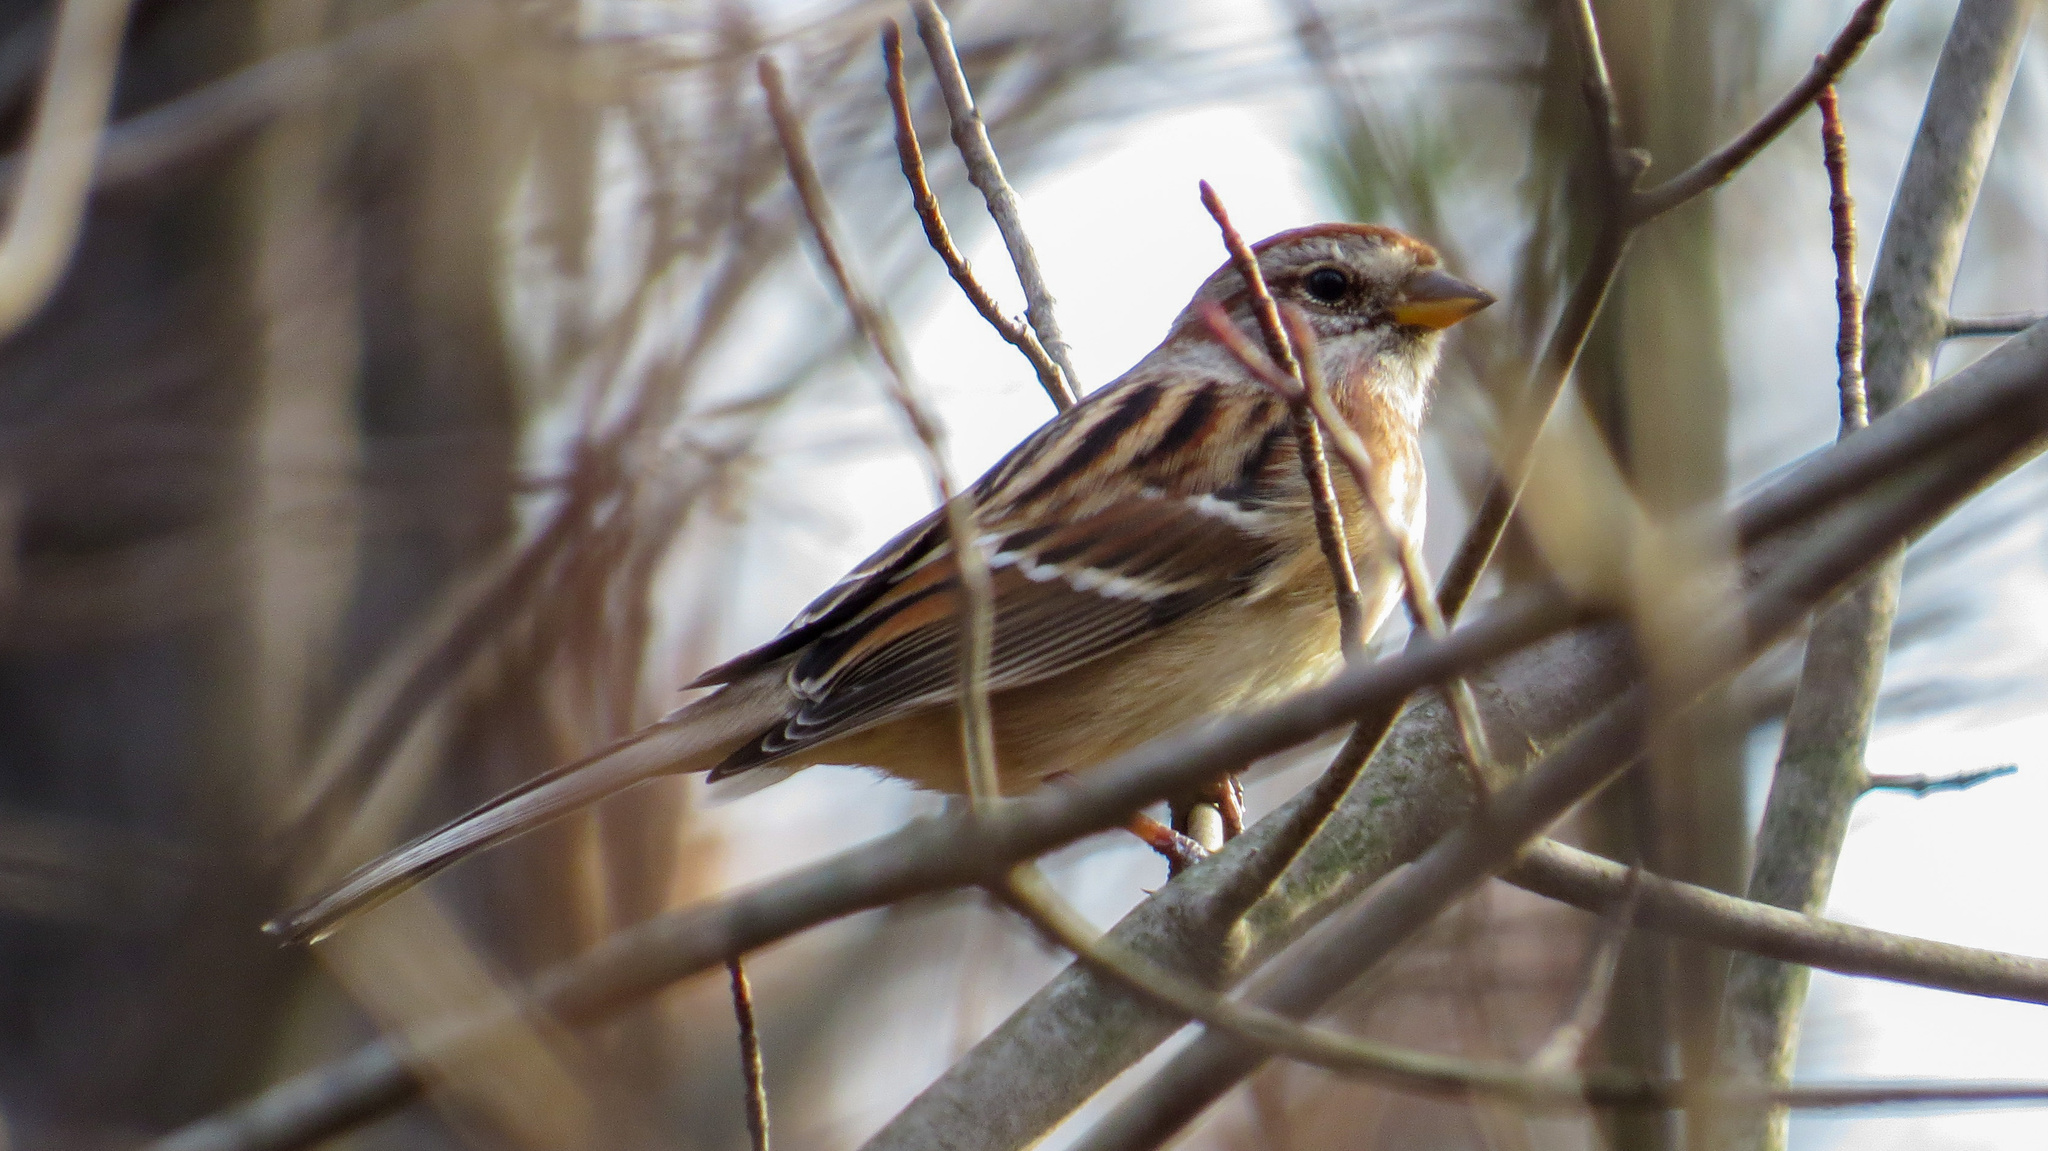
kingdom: Animalia
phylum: Chordata
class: Aves
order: Passeriformes
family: Passerellidae
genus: Spizelloides
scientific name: Spizelloides arborea
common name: American tree sparrow
